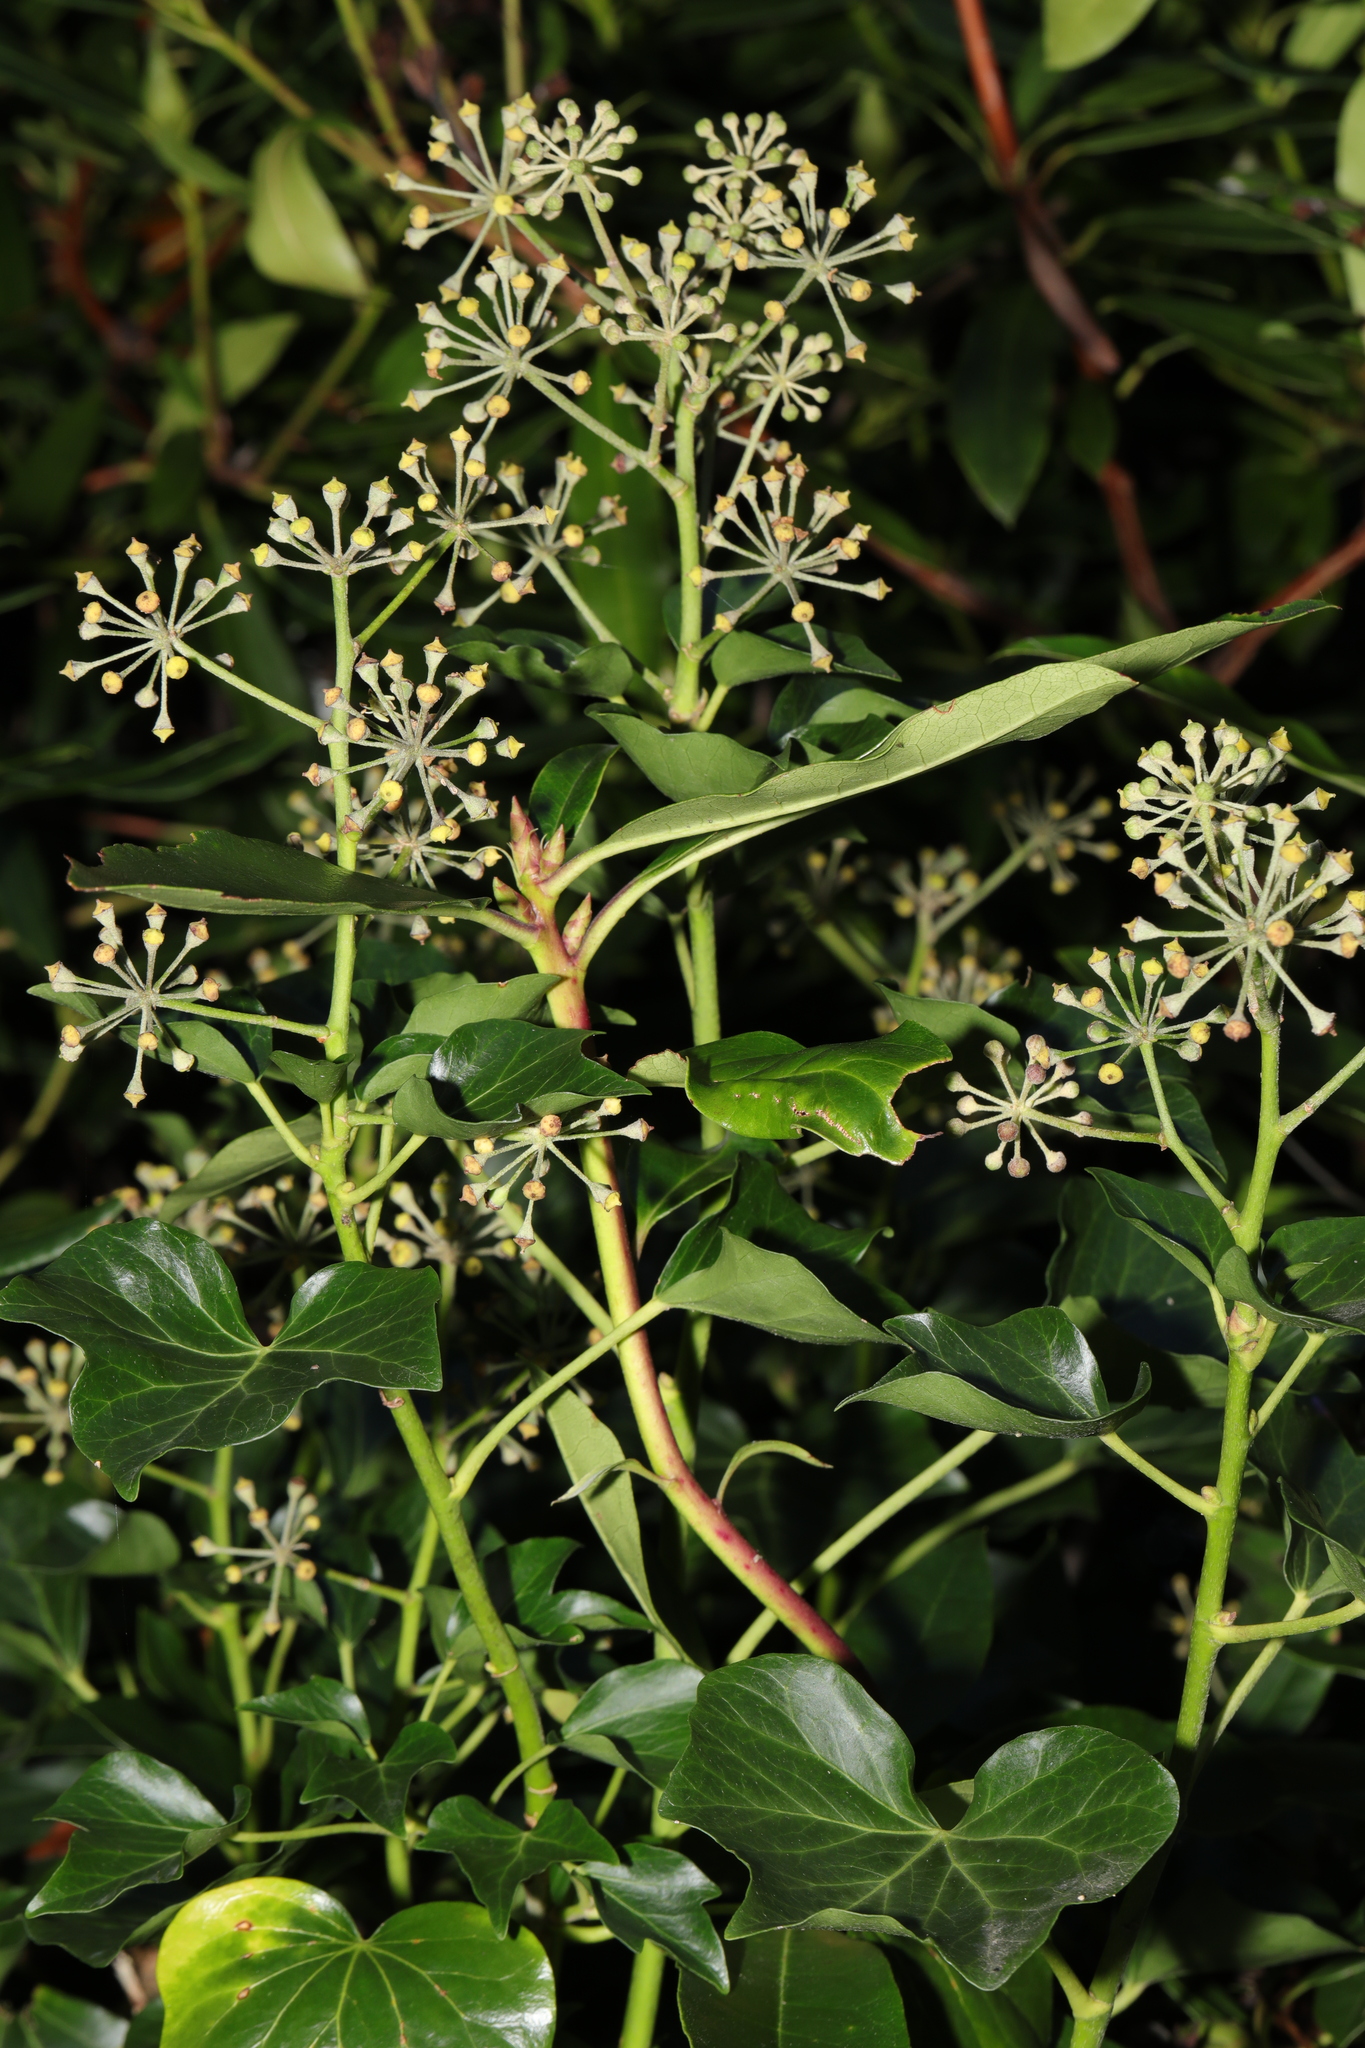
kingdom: Plantae
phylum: Tracheophyta
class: Magnoliopsida
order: Apiales
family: Araliaceae
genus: Hedera
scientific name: Hedera helix
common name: Ivy
